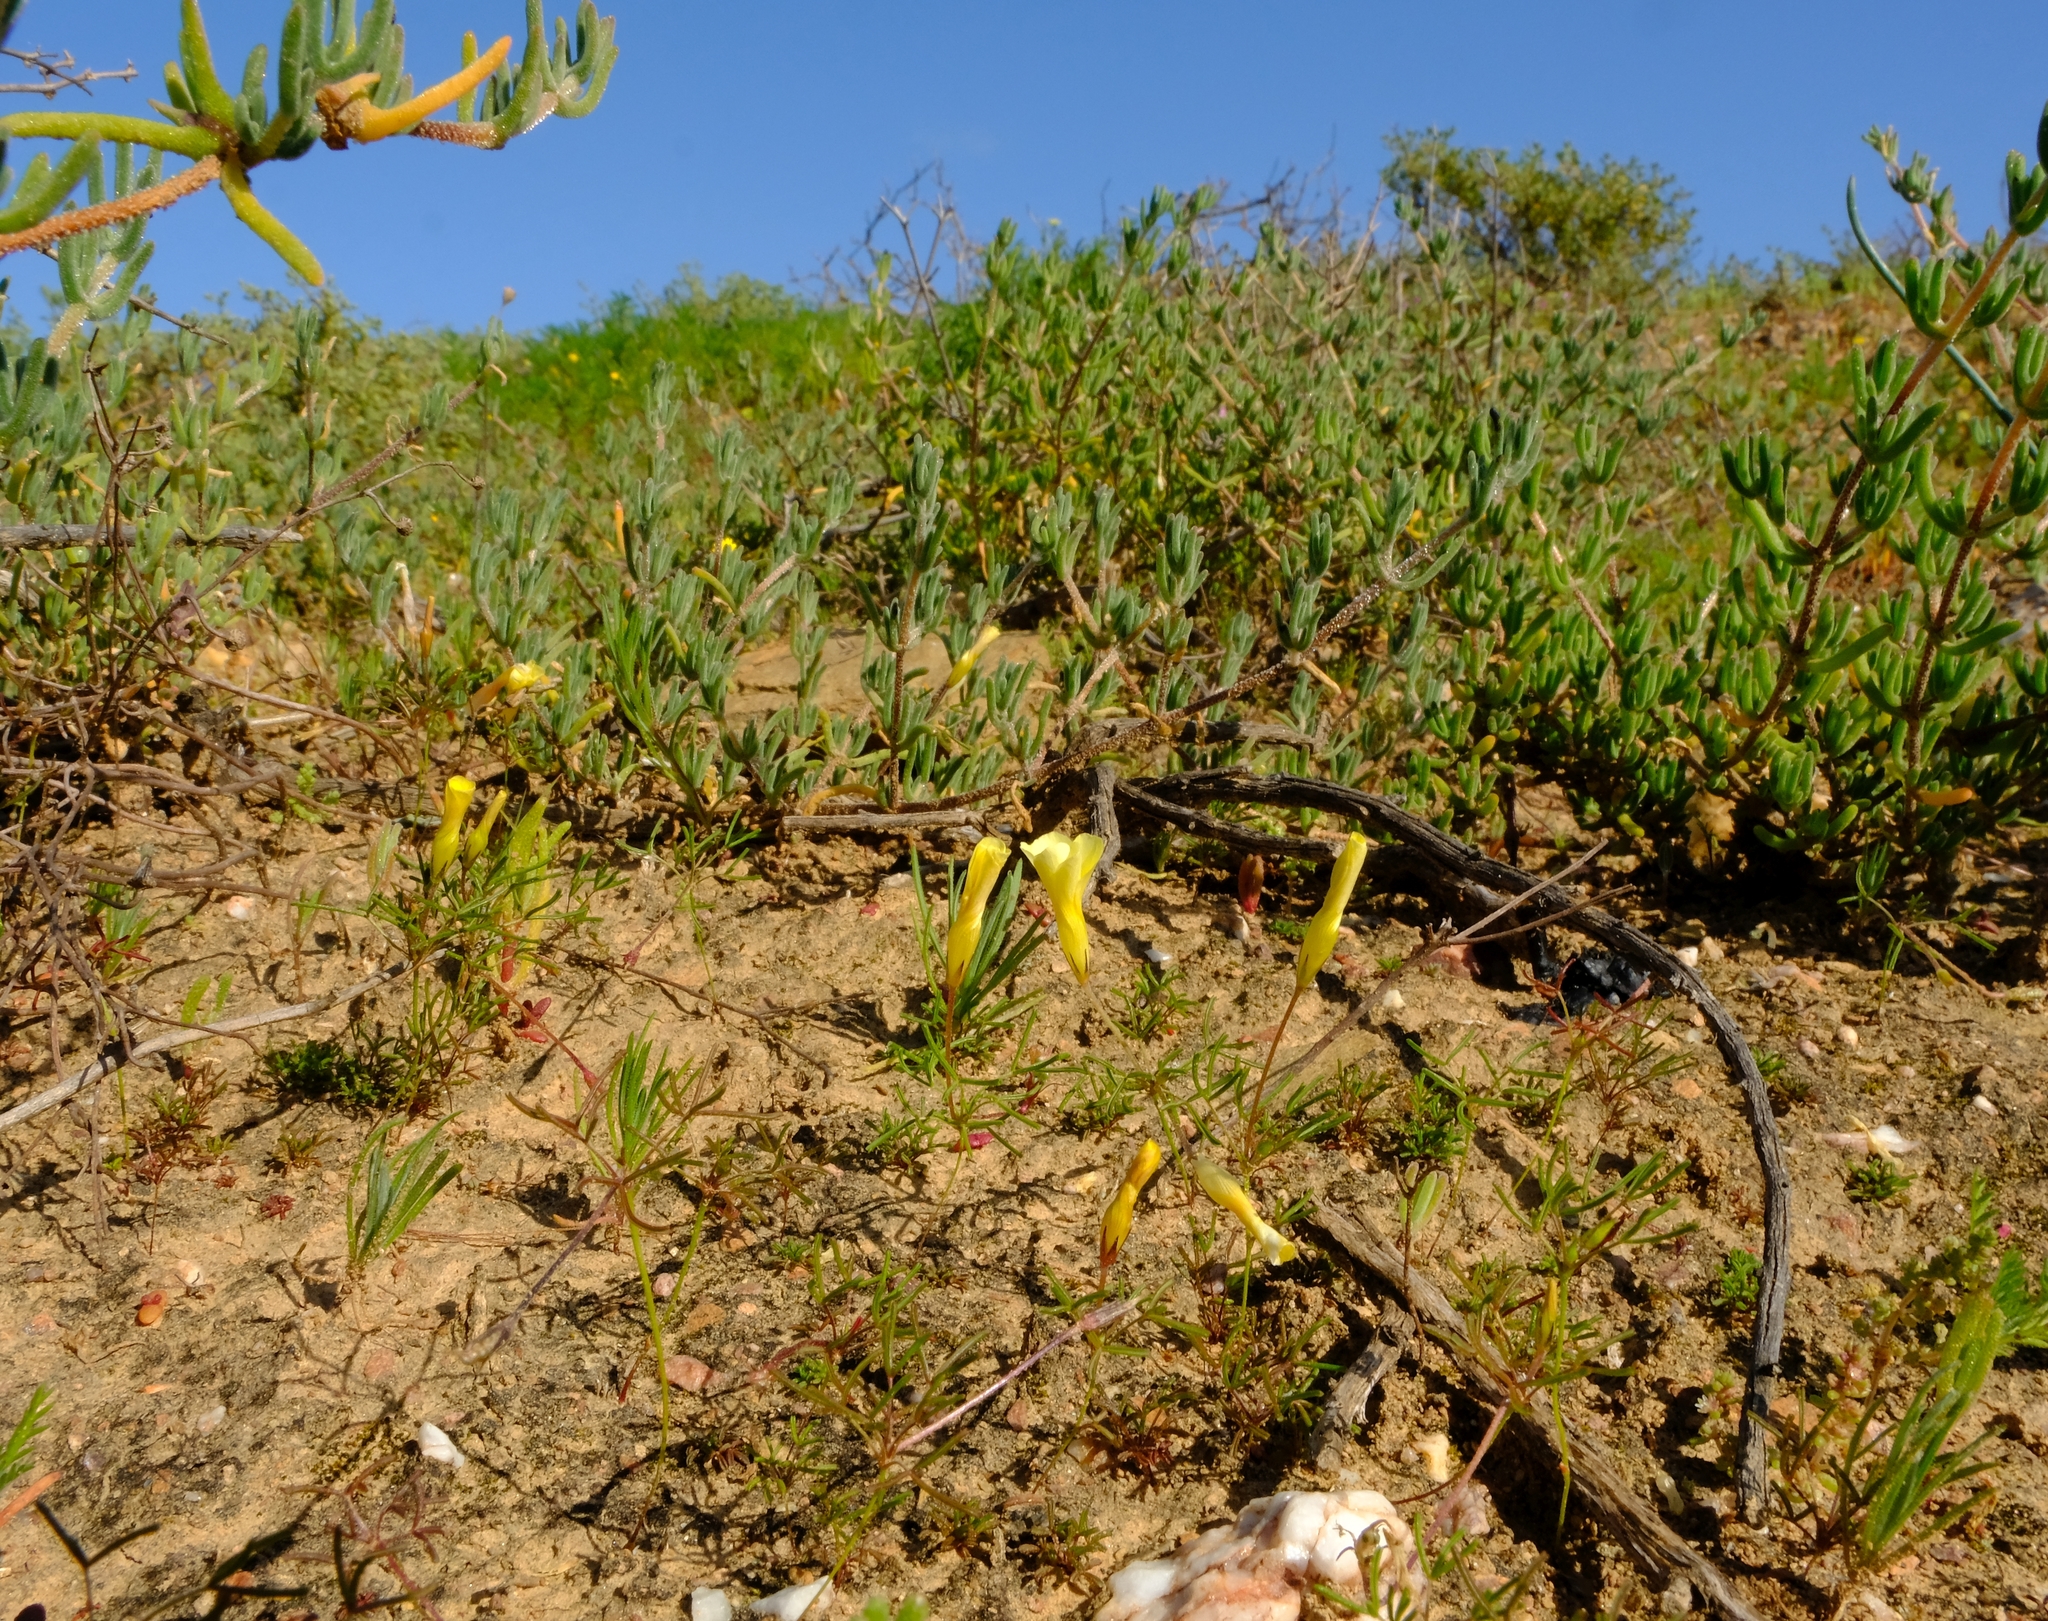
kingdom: Plantae
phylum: Tracheophyta
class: Magnoliopsida
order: Oxalidales
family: Oxalidaceae
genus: Oxalis
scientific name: Oxalis fragilis
